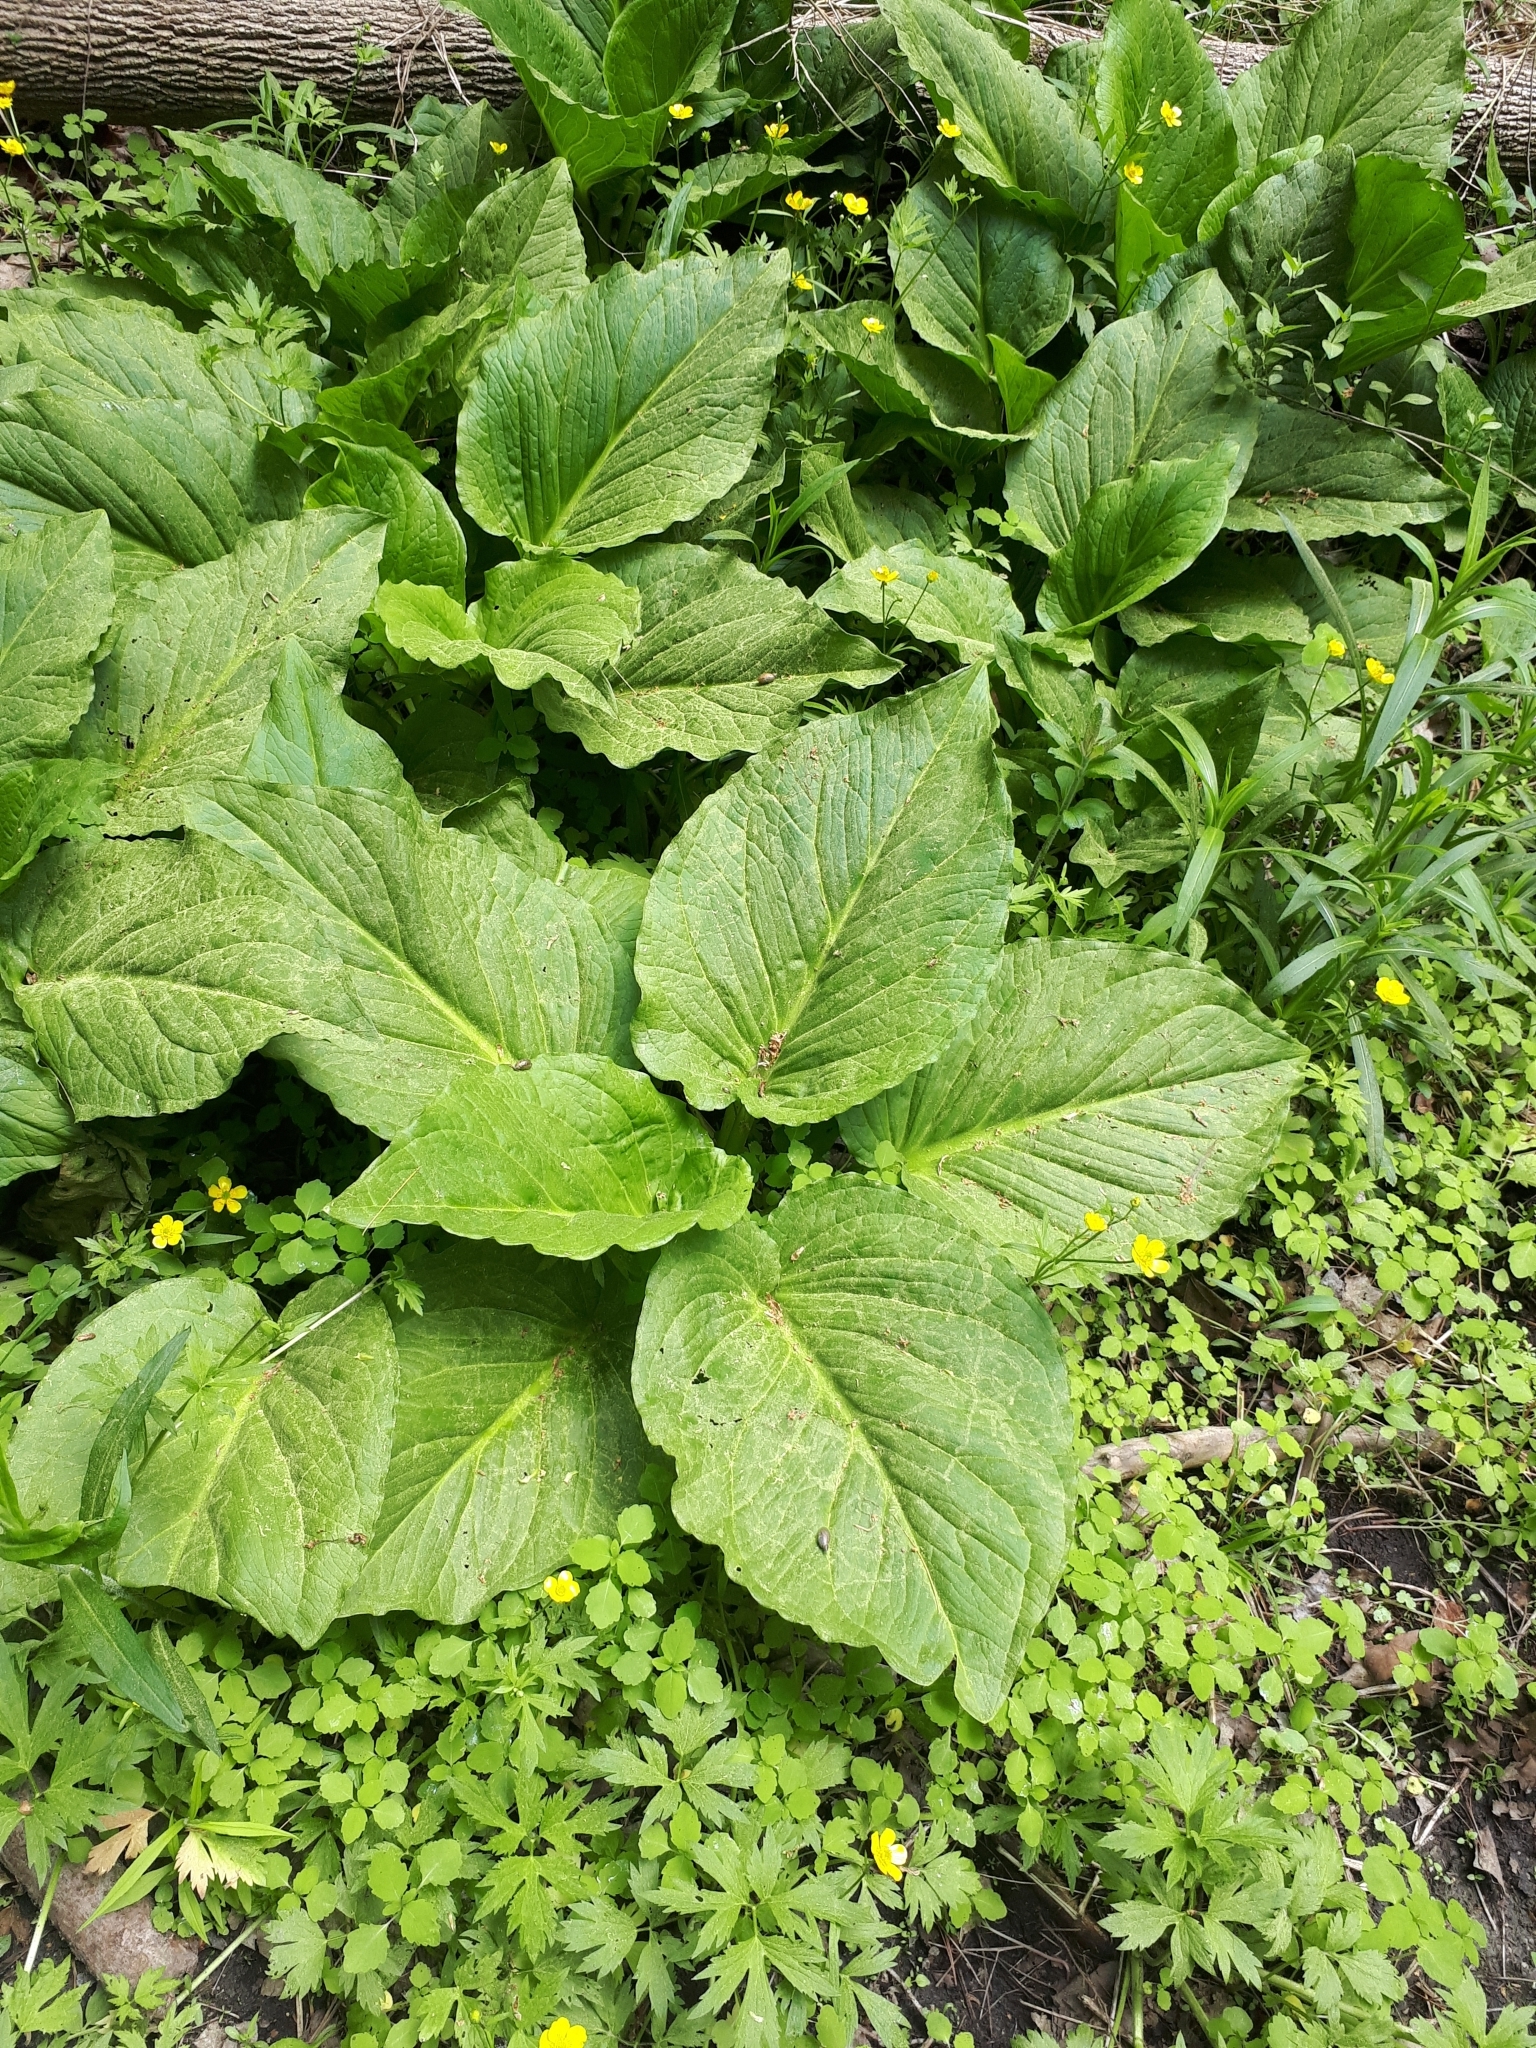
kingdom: Plantae
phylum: Tracheophyta
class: Liliopsida
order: Alismatales
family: Araceae
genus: Symplocarpus
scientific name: Symplocarpus foetidus
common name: Eastern skunk cabbage
